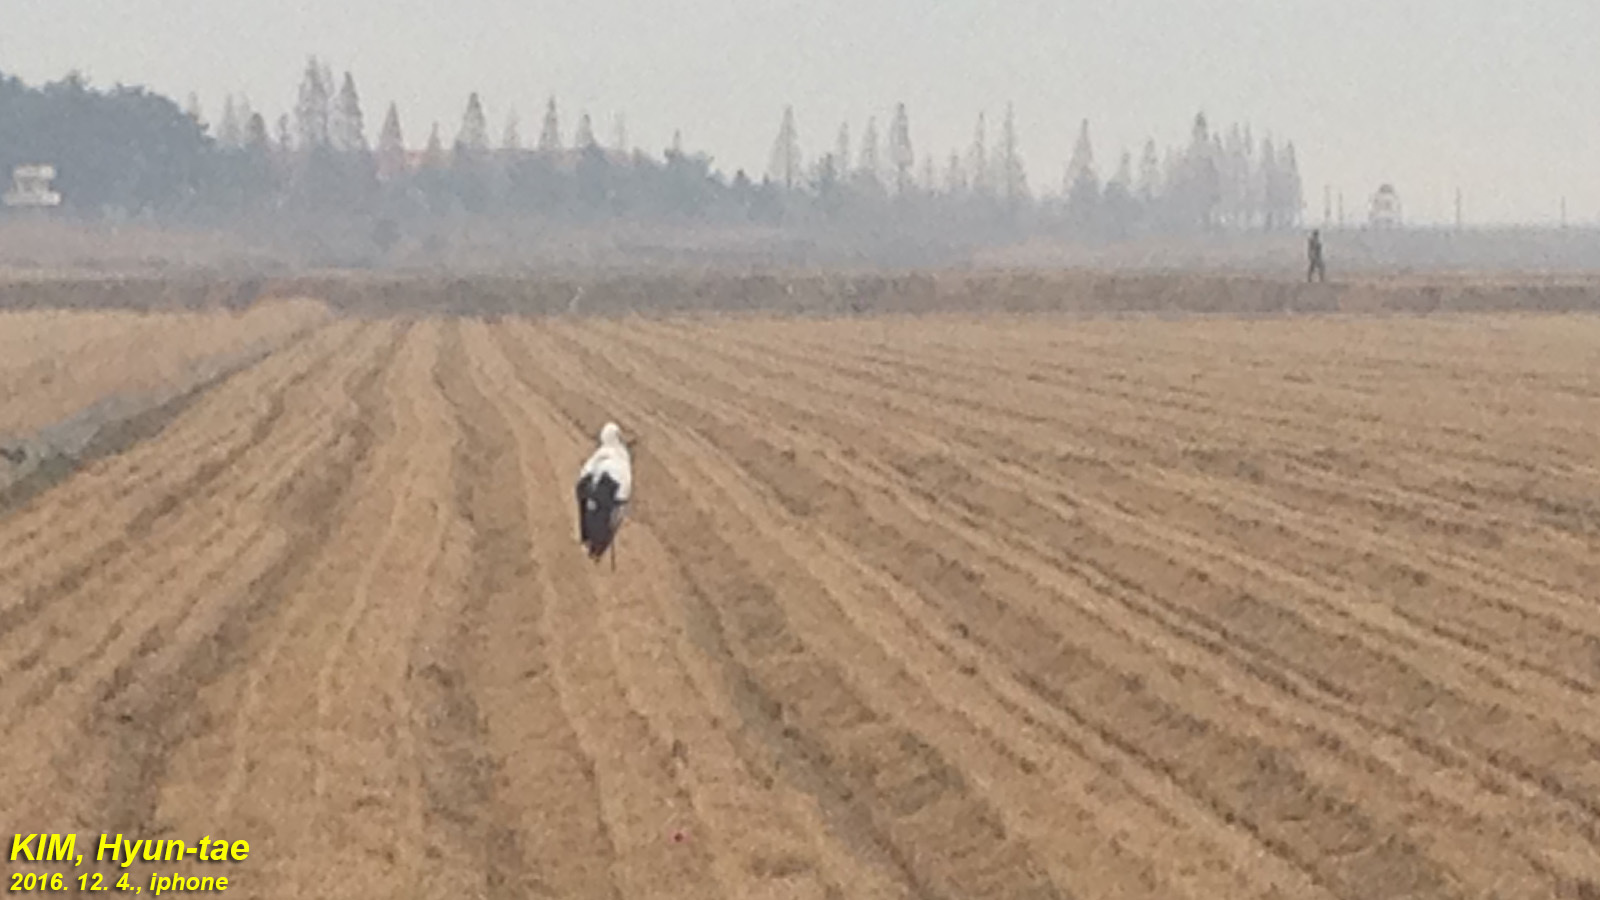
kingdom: Animalia
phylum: Chordata
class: Aves
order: Ciconiiformes
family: Ciconiidae
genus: Ciconia
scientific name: Ciconia boyciana
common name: Oriental stork
